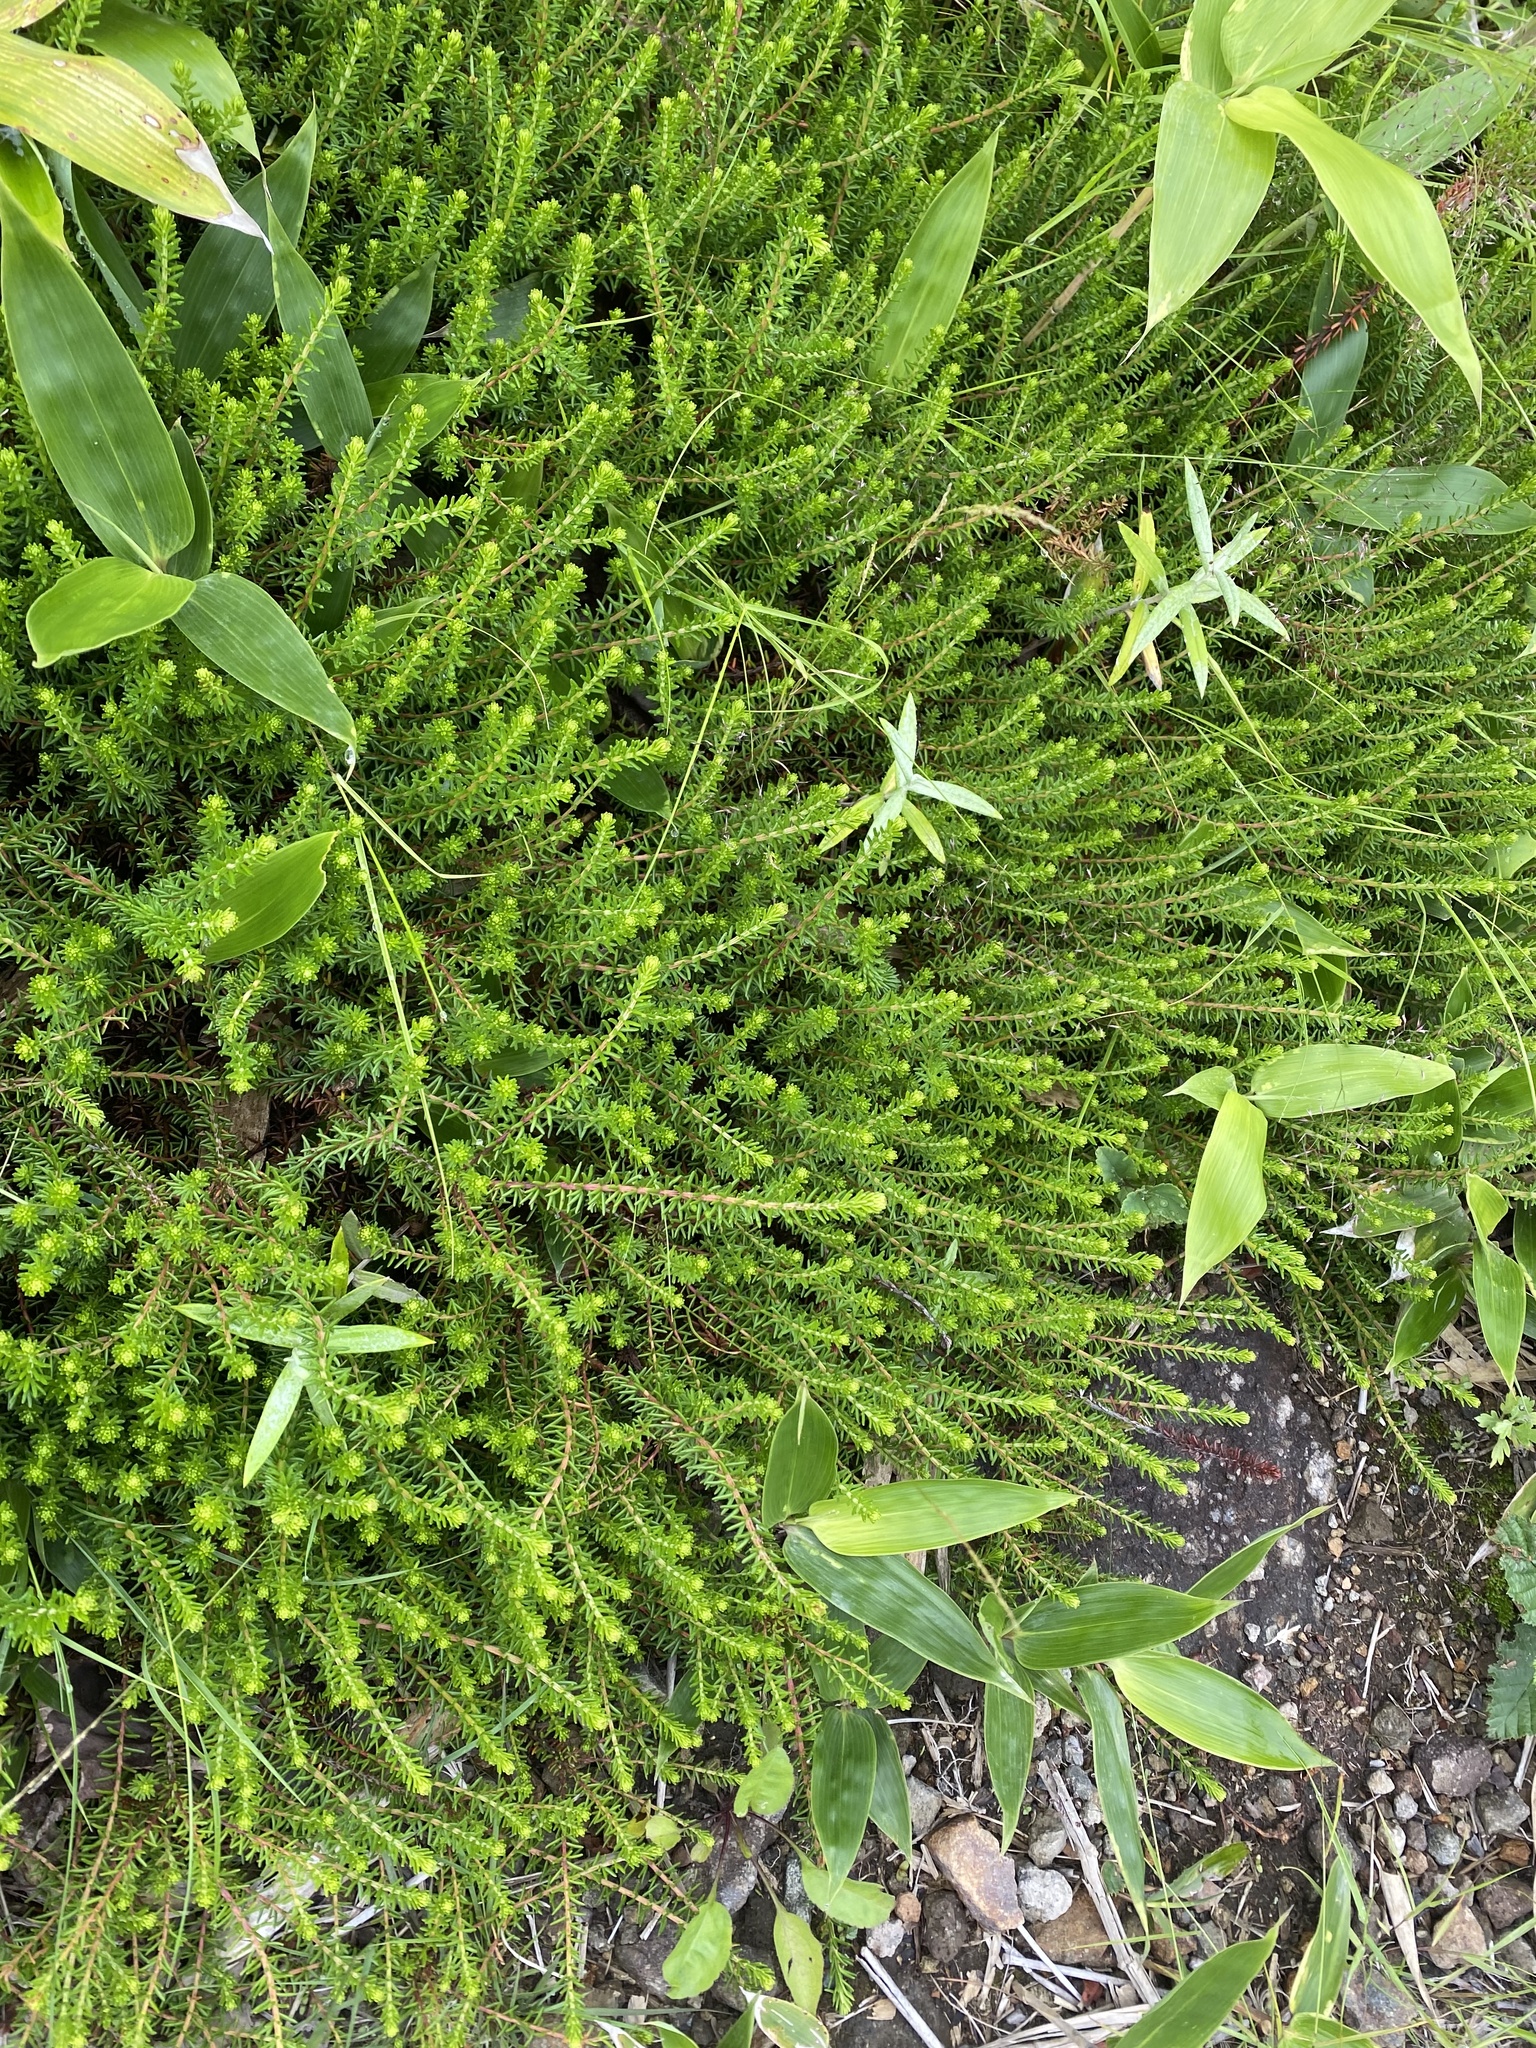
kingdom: Plantae
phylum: Tracheophyta
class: Magnoliopsida
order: Ericales
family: Ericaceae
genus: Empetrum
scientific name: Empetrum nigrum
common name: Black crowberry
